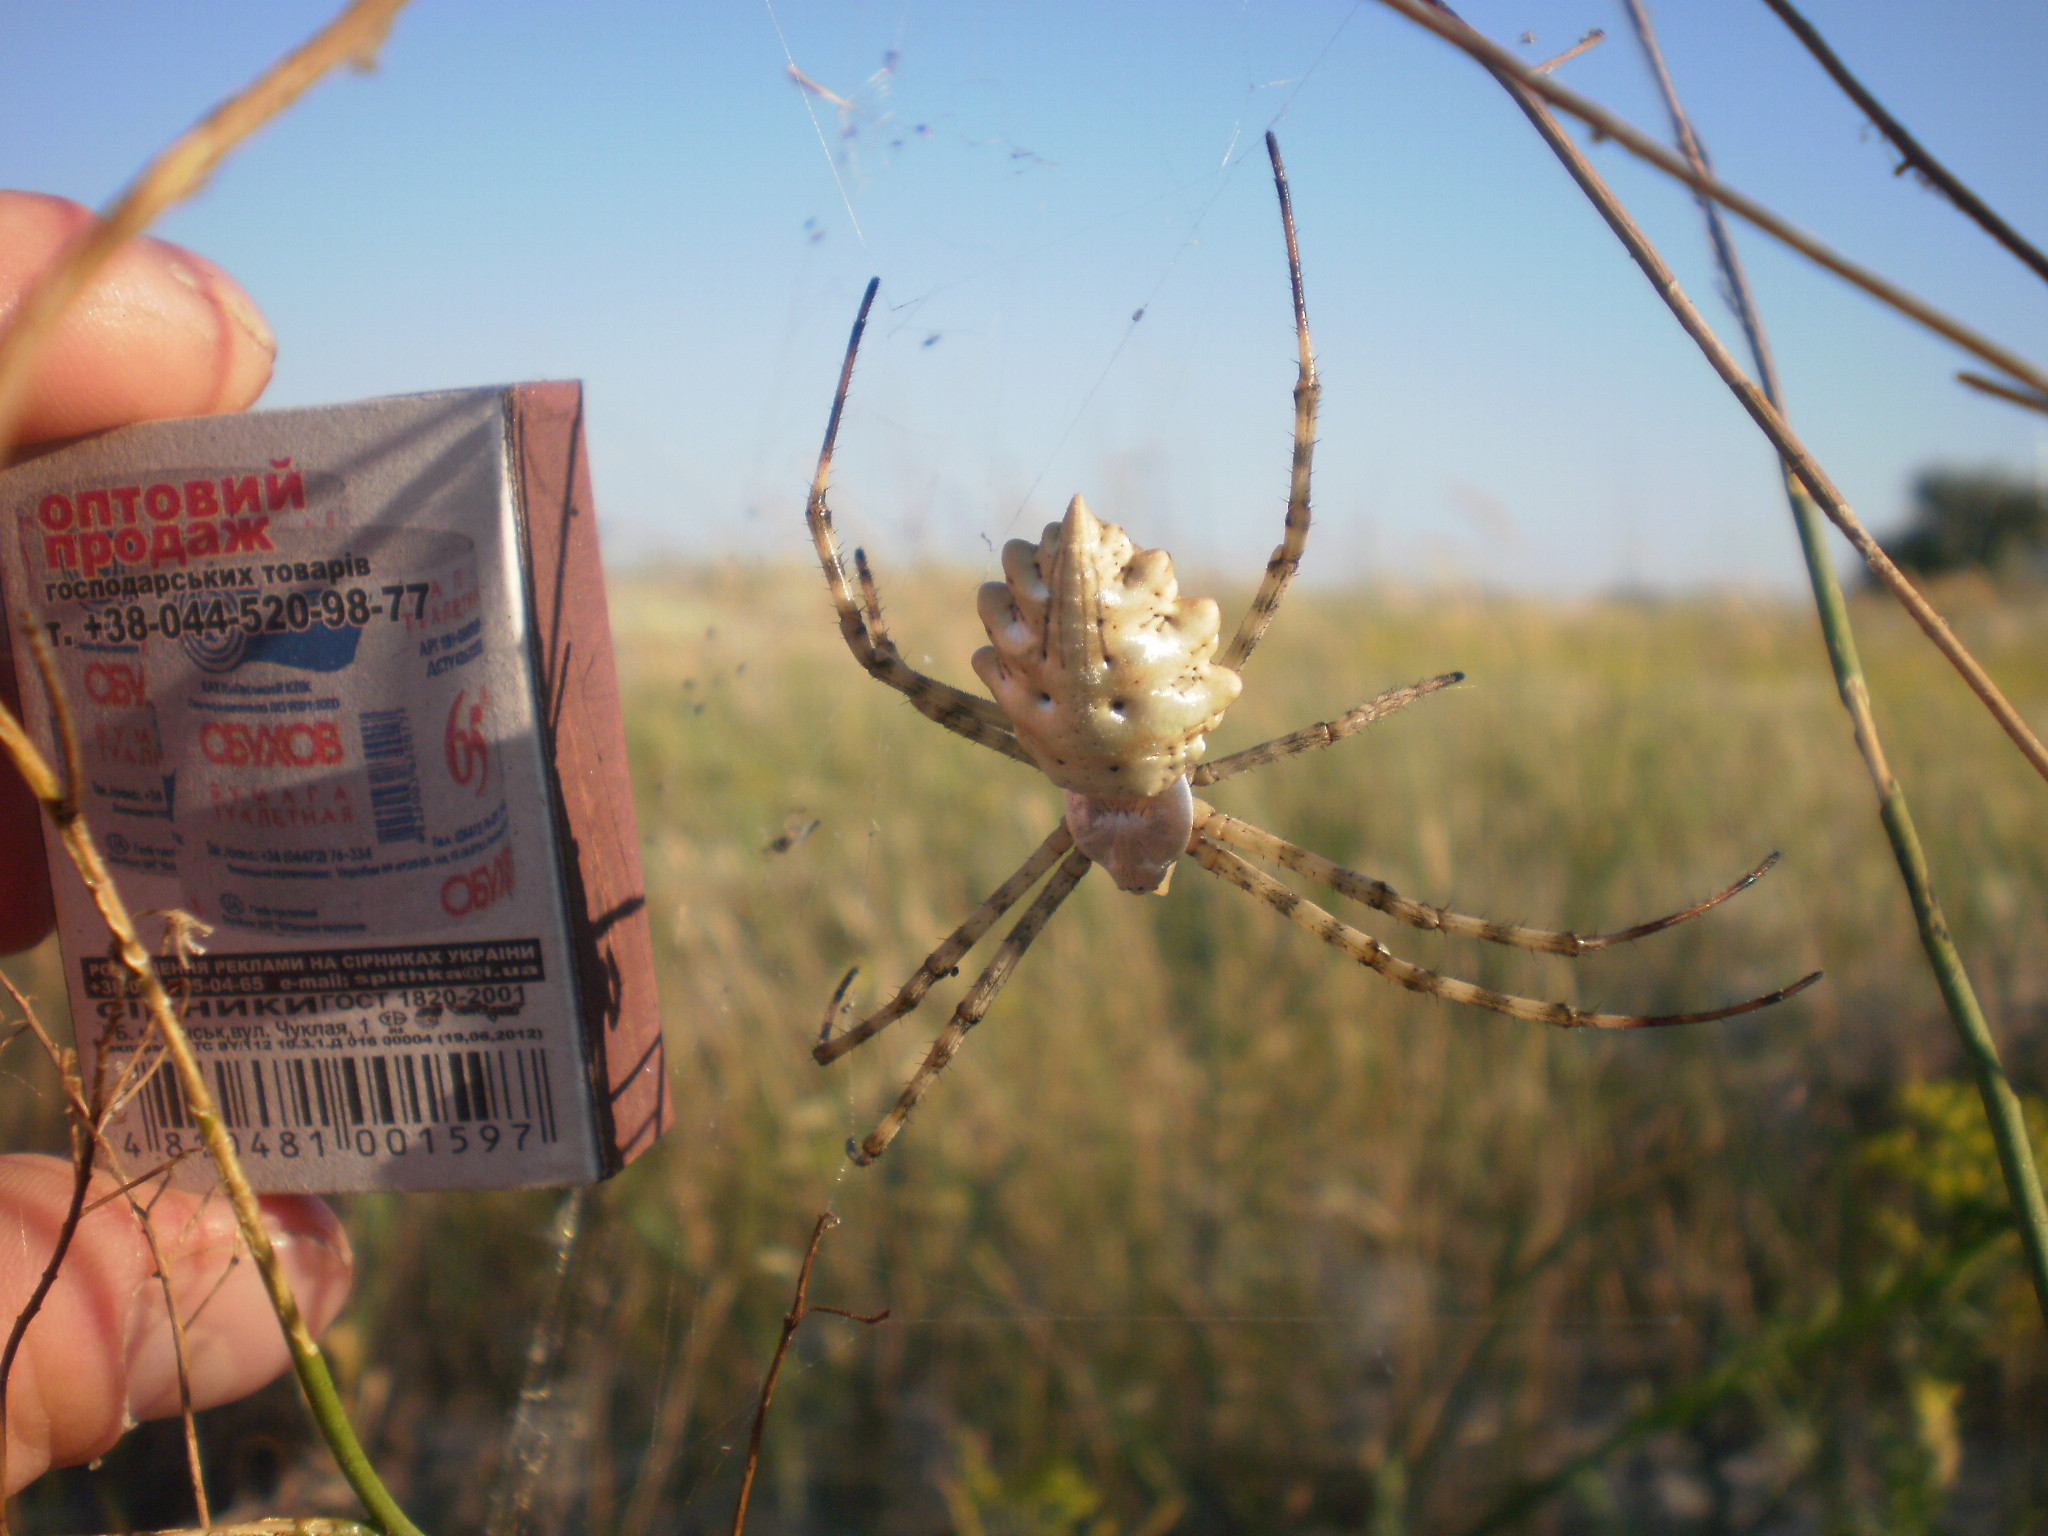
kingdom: Animalia
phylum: Arthropoda
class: Arachnida
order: Araneae
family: Araneidae
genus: Argiope
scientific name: Argiope lobata
